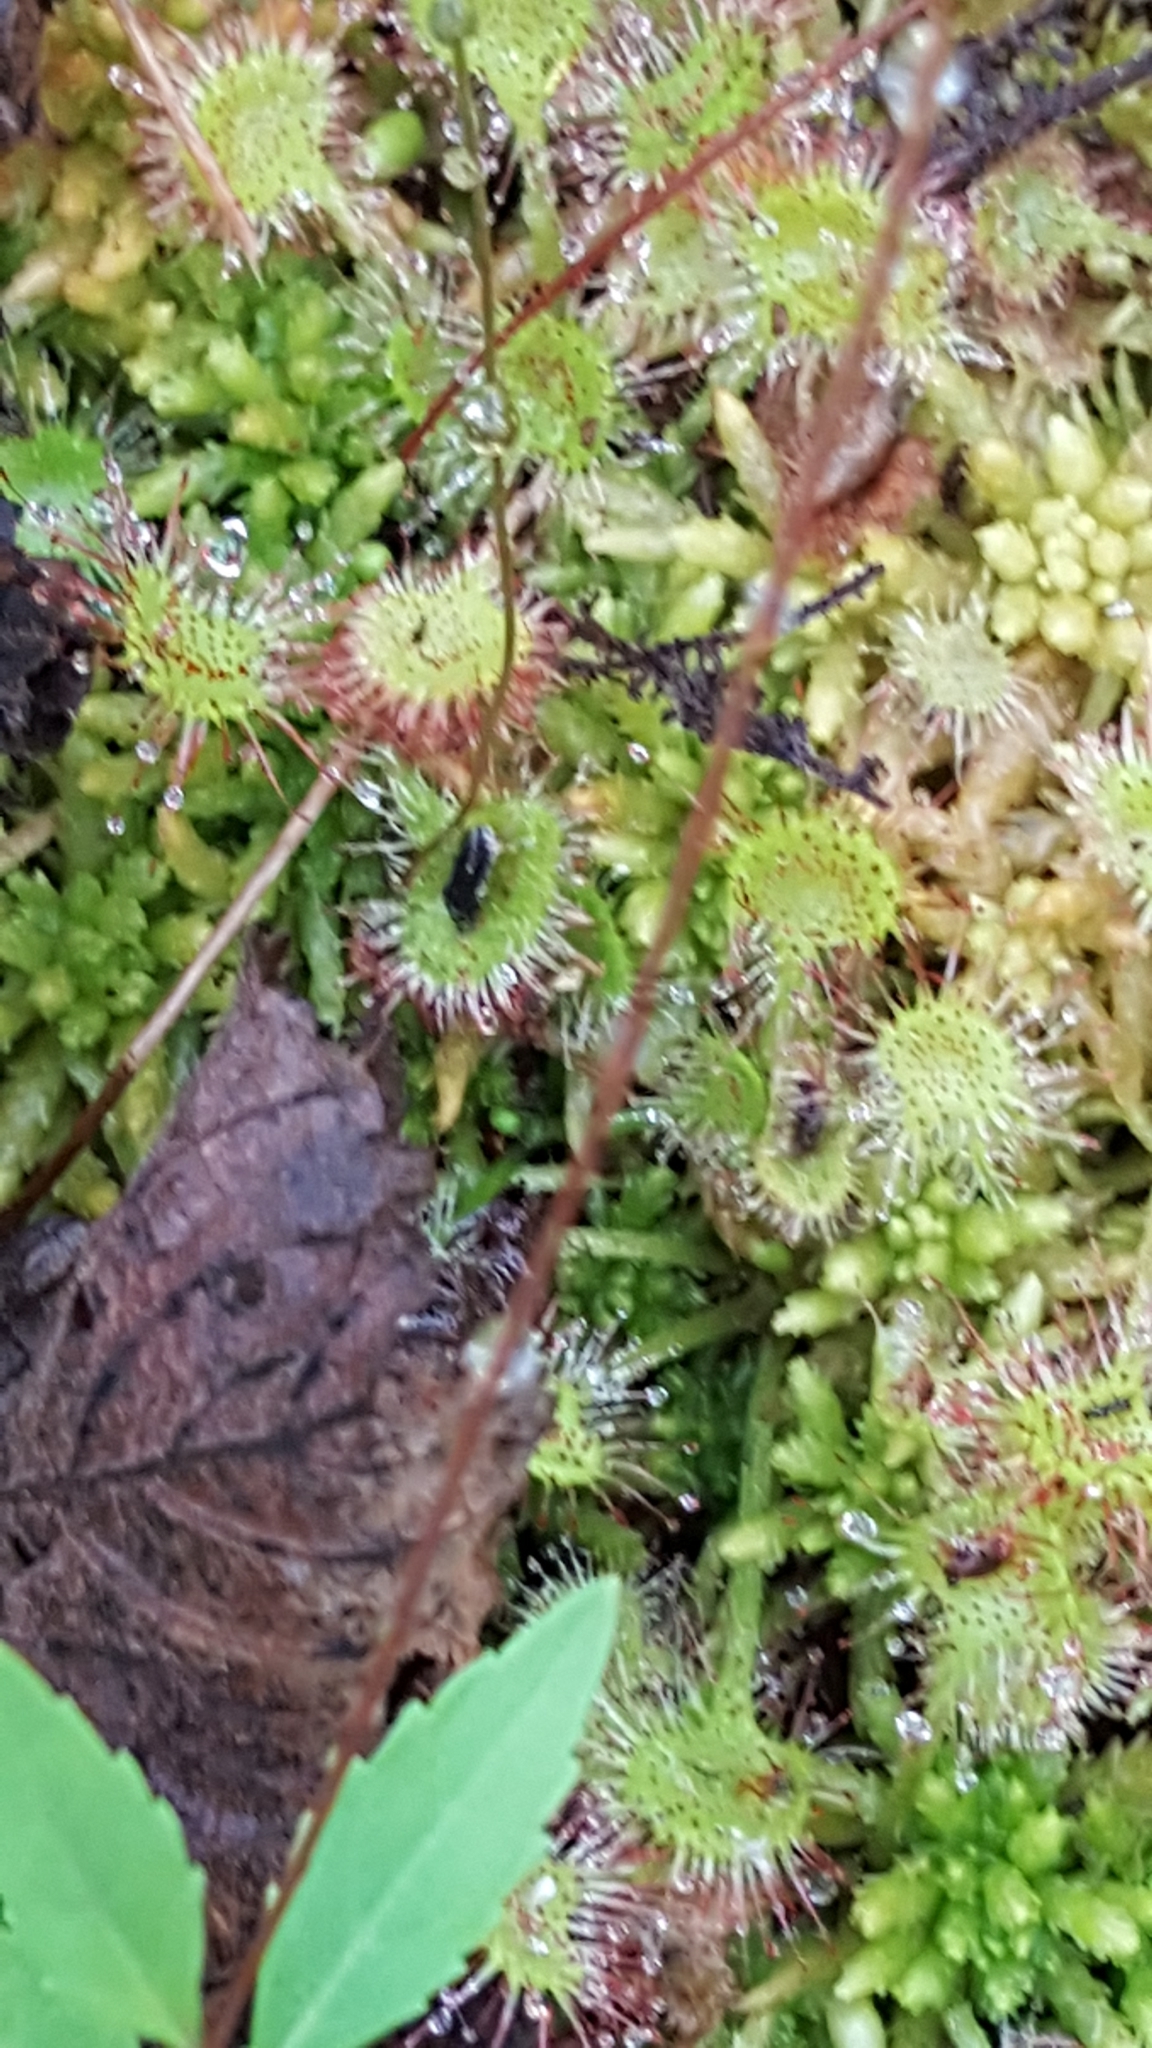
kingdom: Plantae
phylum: Tracheophyta
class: Magnoliopsida
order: Caryophyllales
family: Droseraceae
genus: Drosera
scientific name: Drosera rotundifolia
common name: Round-leaved sundew
